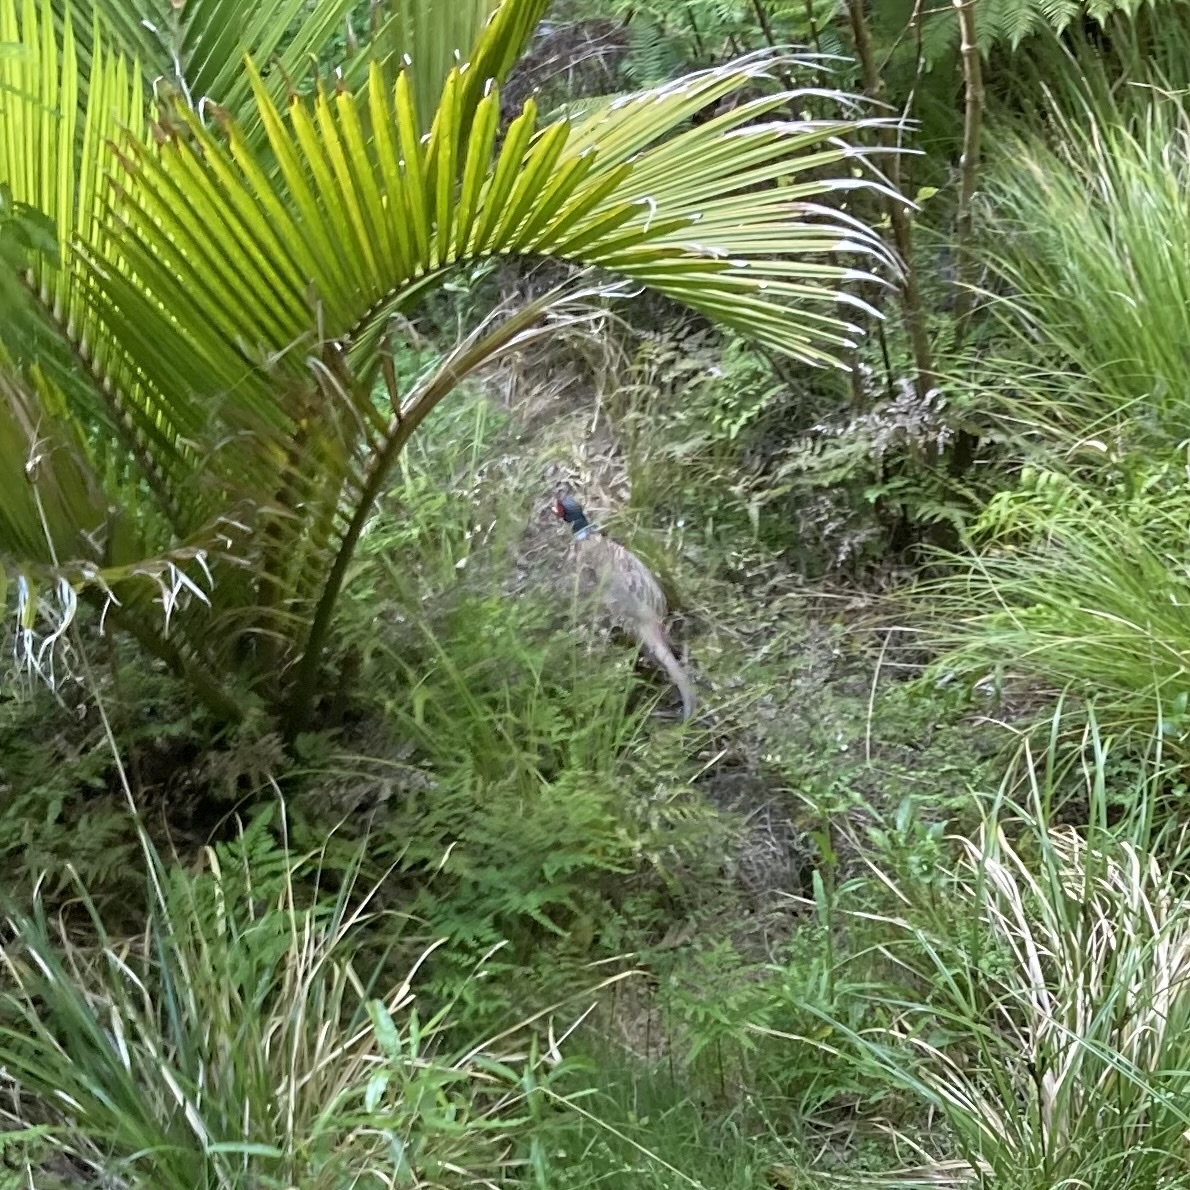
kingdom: Animalia
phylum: Chordata
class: Aves
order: Galliformes
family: Phasianidae
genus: Phasianus
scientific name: Phasianus colchicus
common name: Common pheasant
